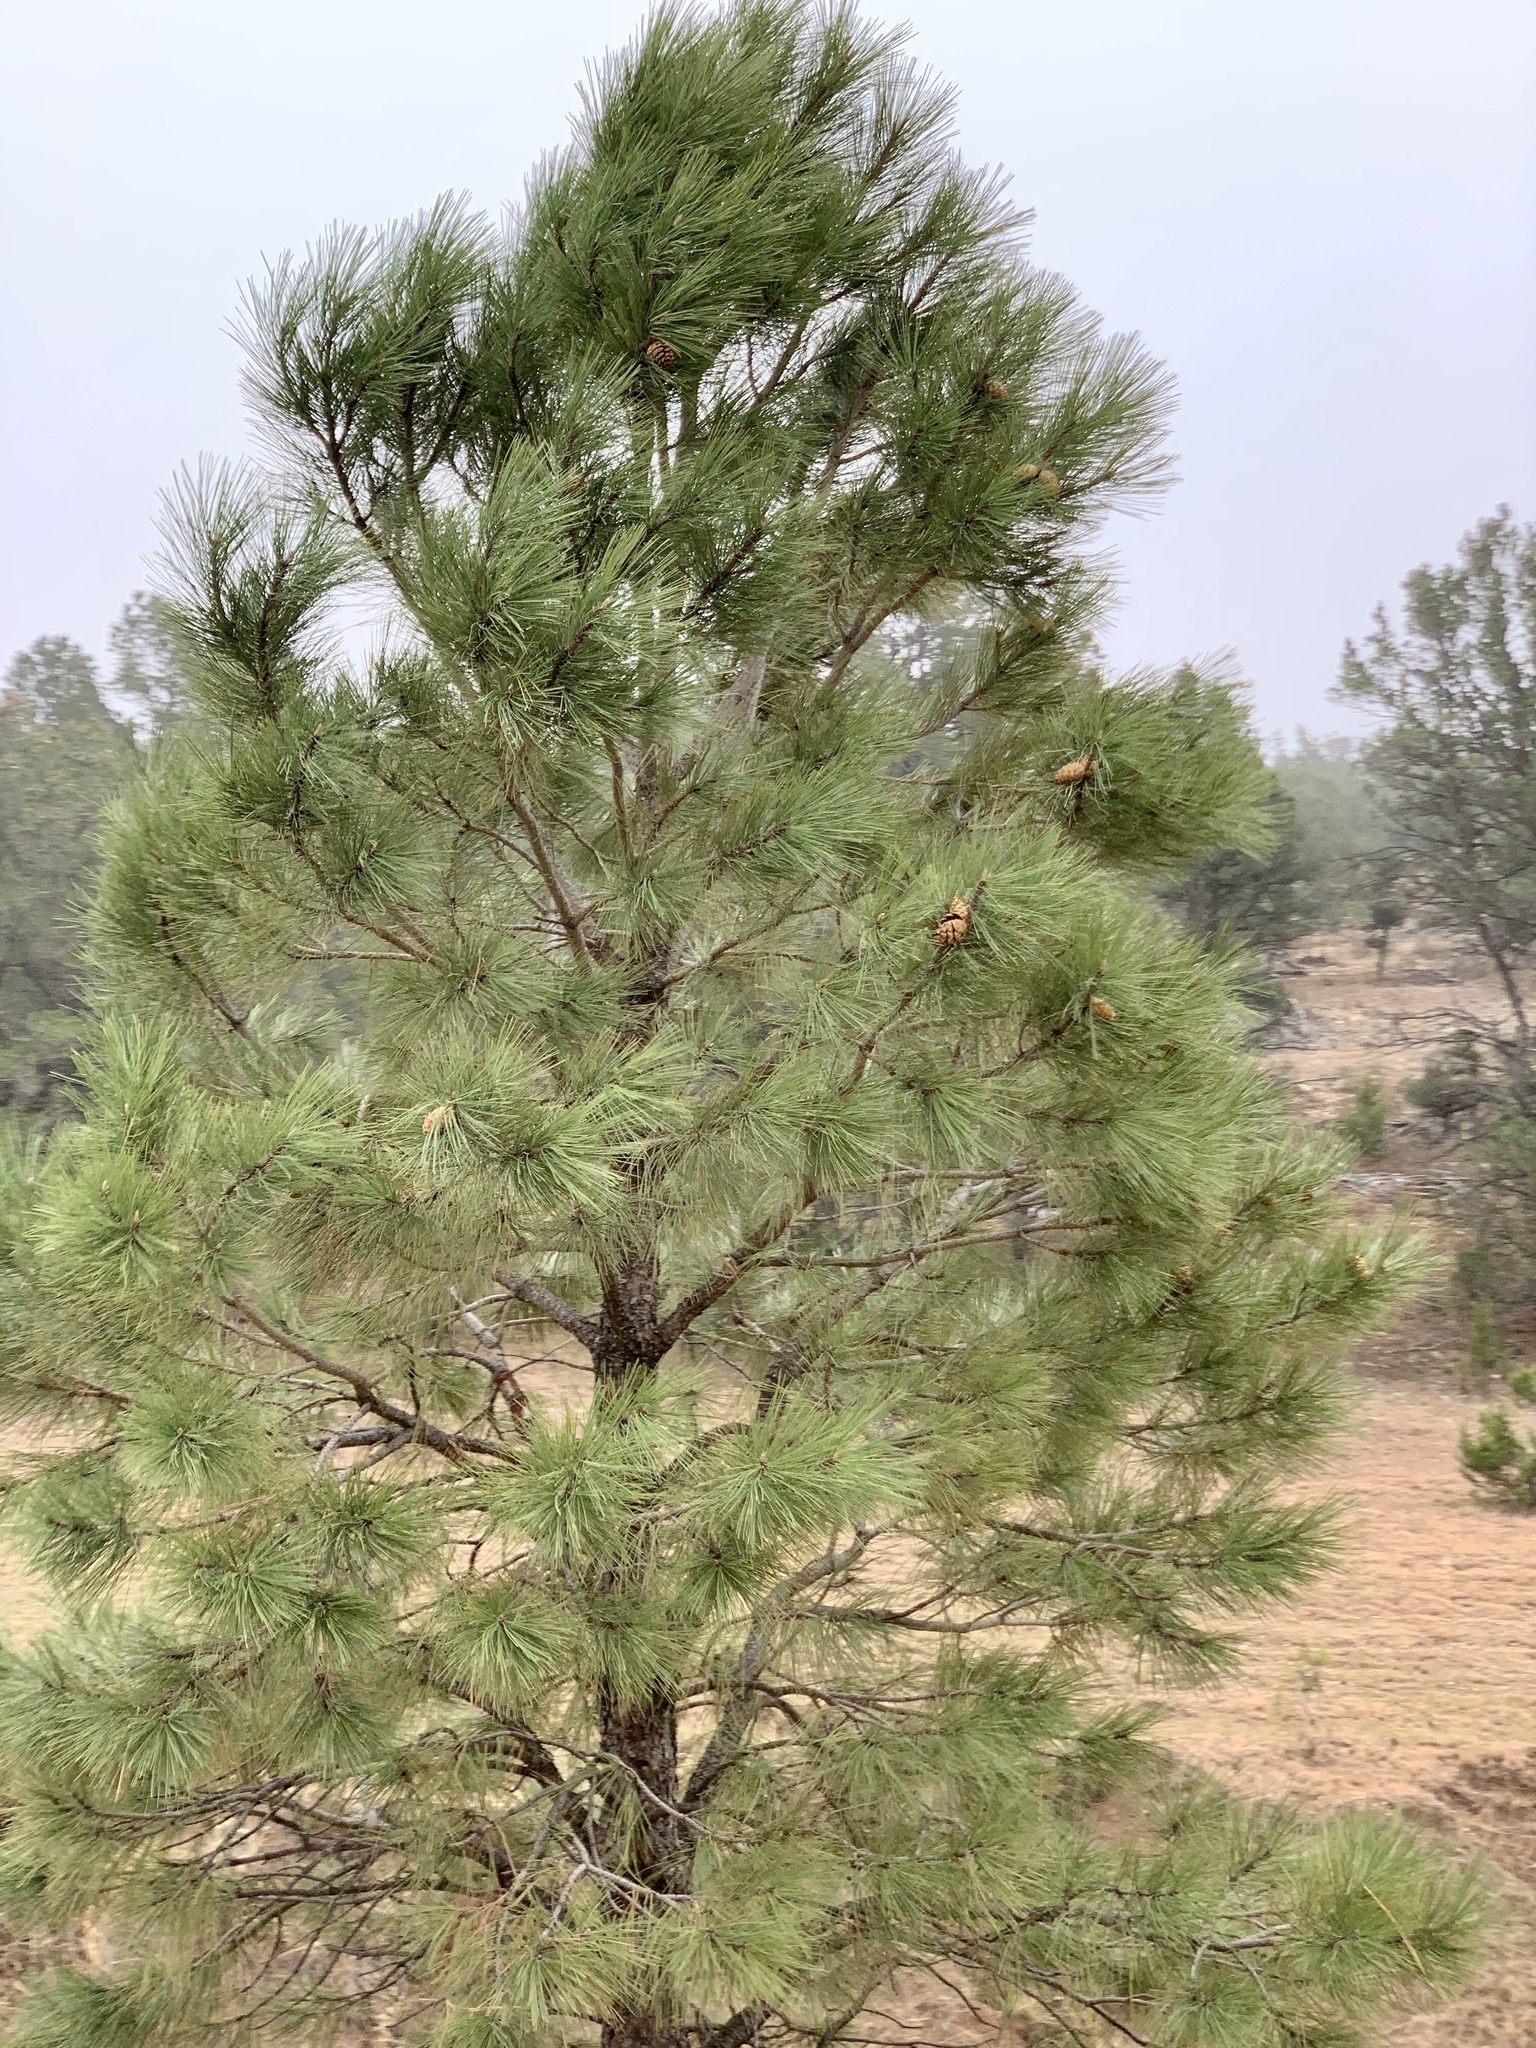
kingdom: Plantae
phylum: Tracheophyta
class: Pinopsida
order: Pinales
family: Pinaceae
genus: Pinus
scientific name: Pinus ponderosa
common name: Western yellow-pine
